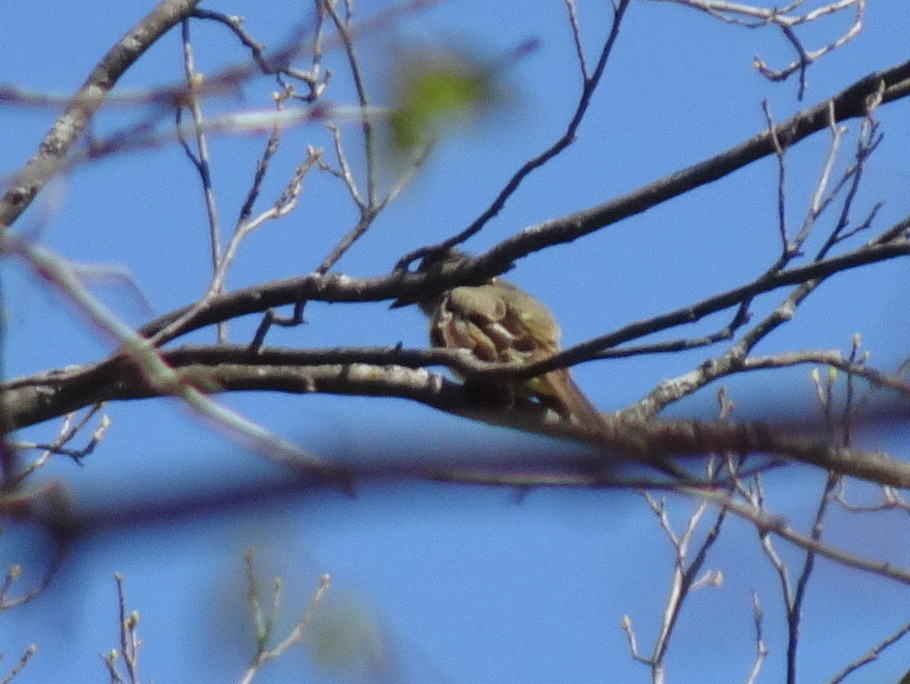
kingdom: Animalia
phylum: Chordata
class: Aves
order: Passeriformes
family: Tyrannidae
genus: Myiarchus
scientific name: Myiarchus crinitus
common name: Great crested flycatcher
